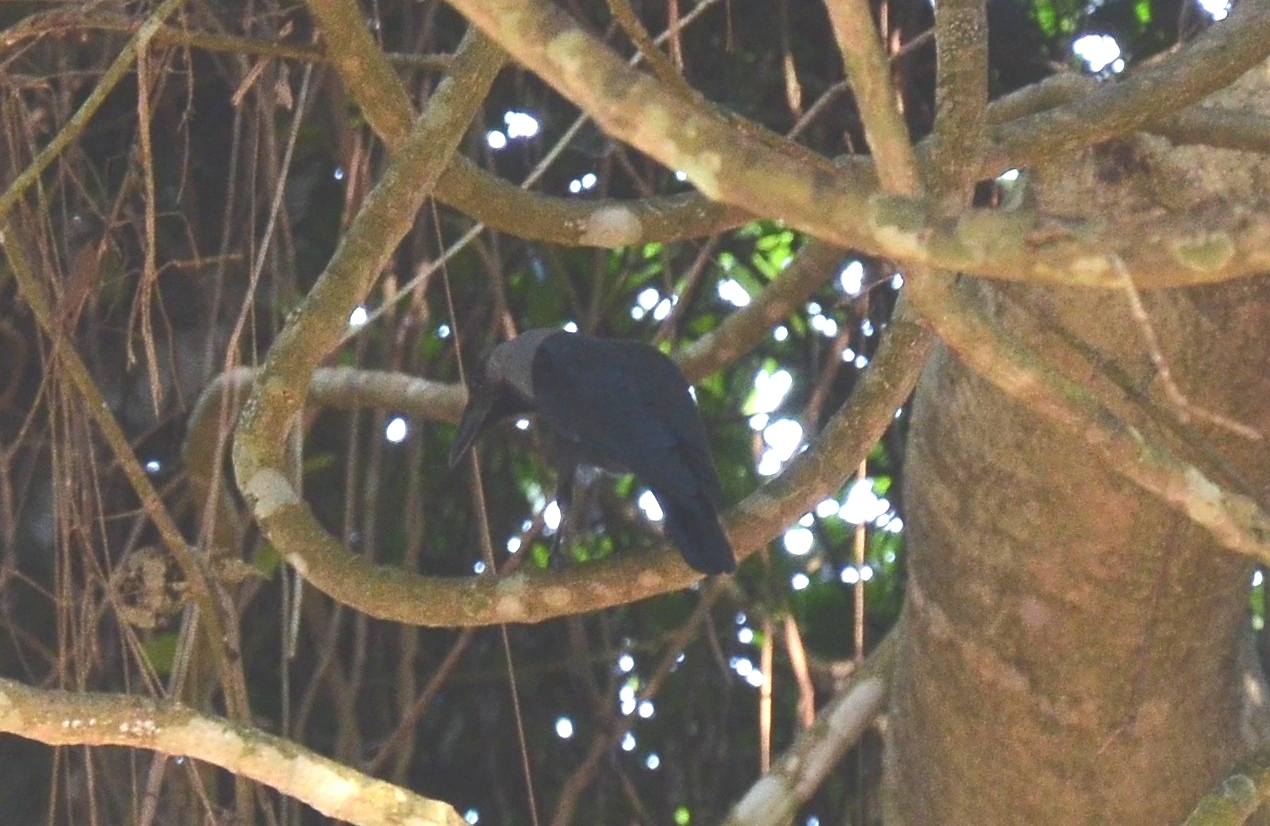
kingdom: Animalia
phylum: Chordata
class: Aves
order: Passeriformes
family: Corvidae
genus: Corvus
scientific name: Corvus splendens
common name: House crow
